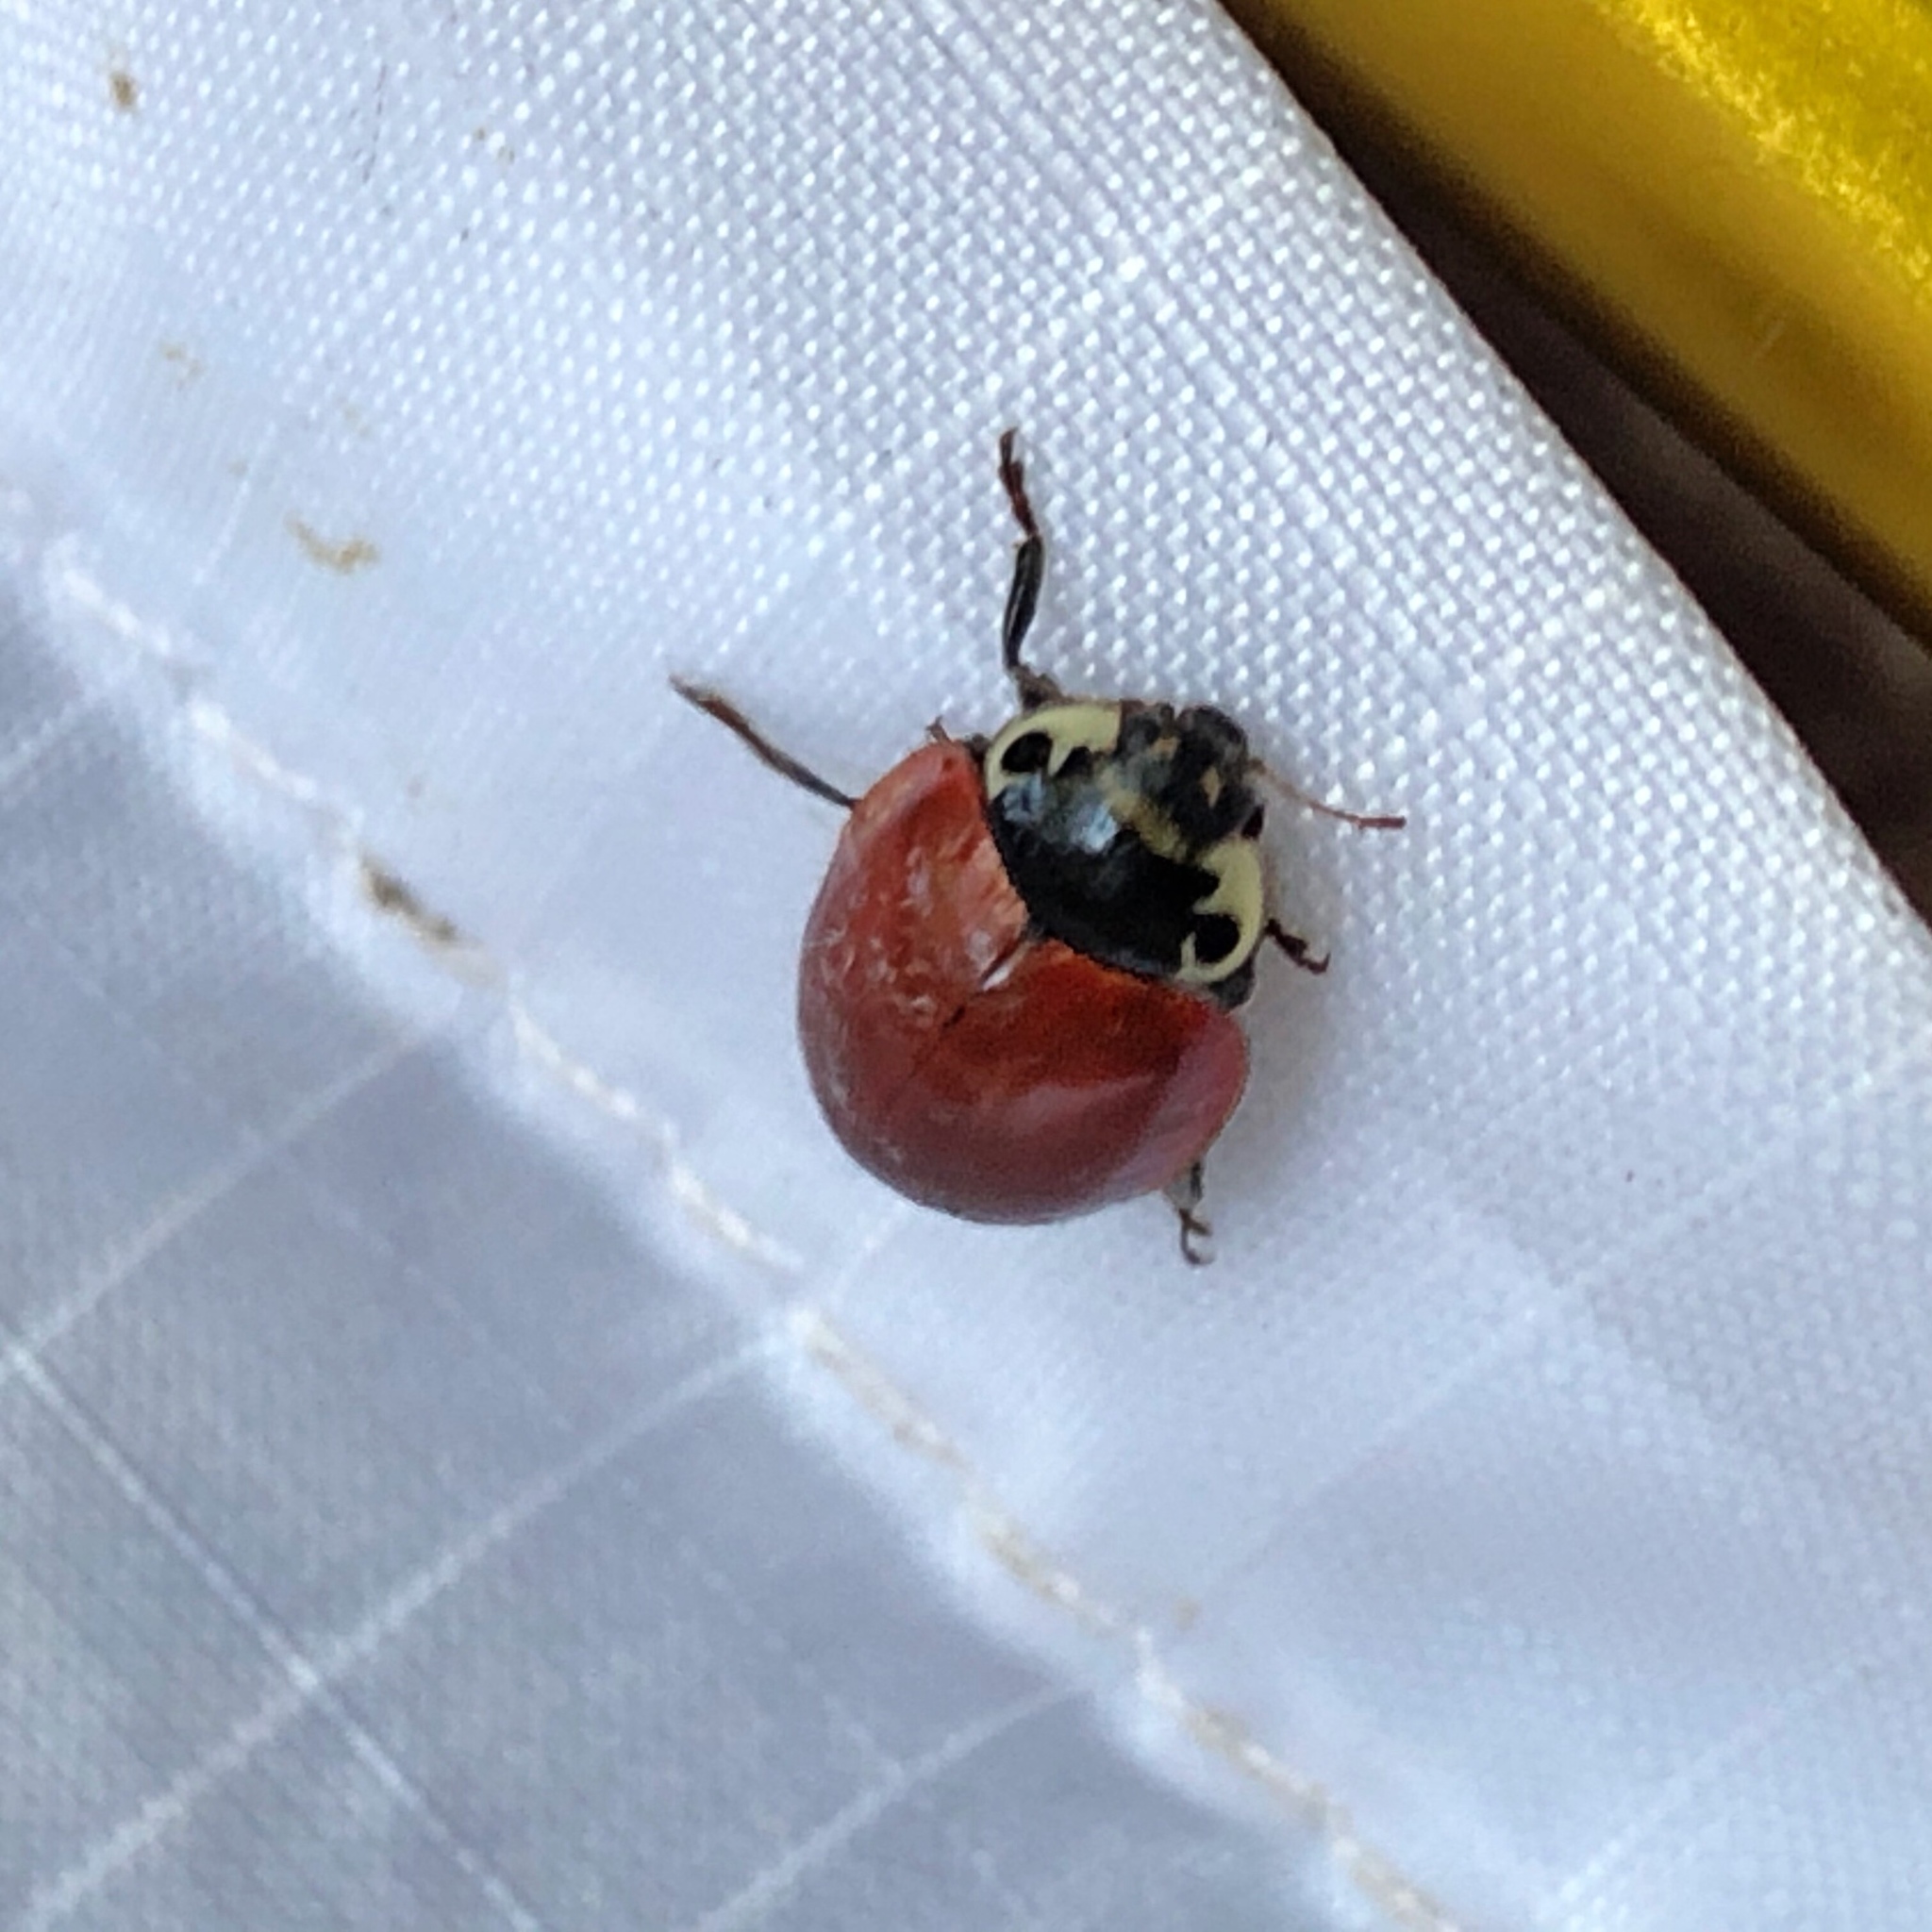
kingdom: Animalia
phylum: Arthropoda
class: Insecta
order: Coleoptera
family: Coccinellidae
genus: Myzia
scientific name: Myzia pullata
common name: Streaked lady beetle
